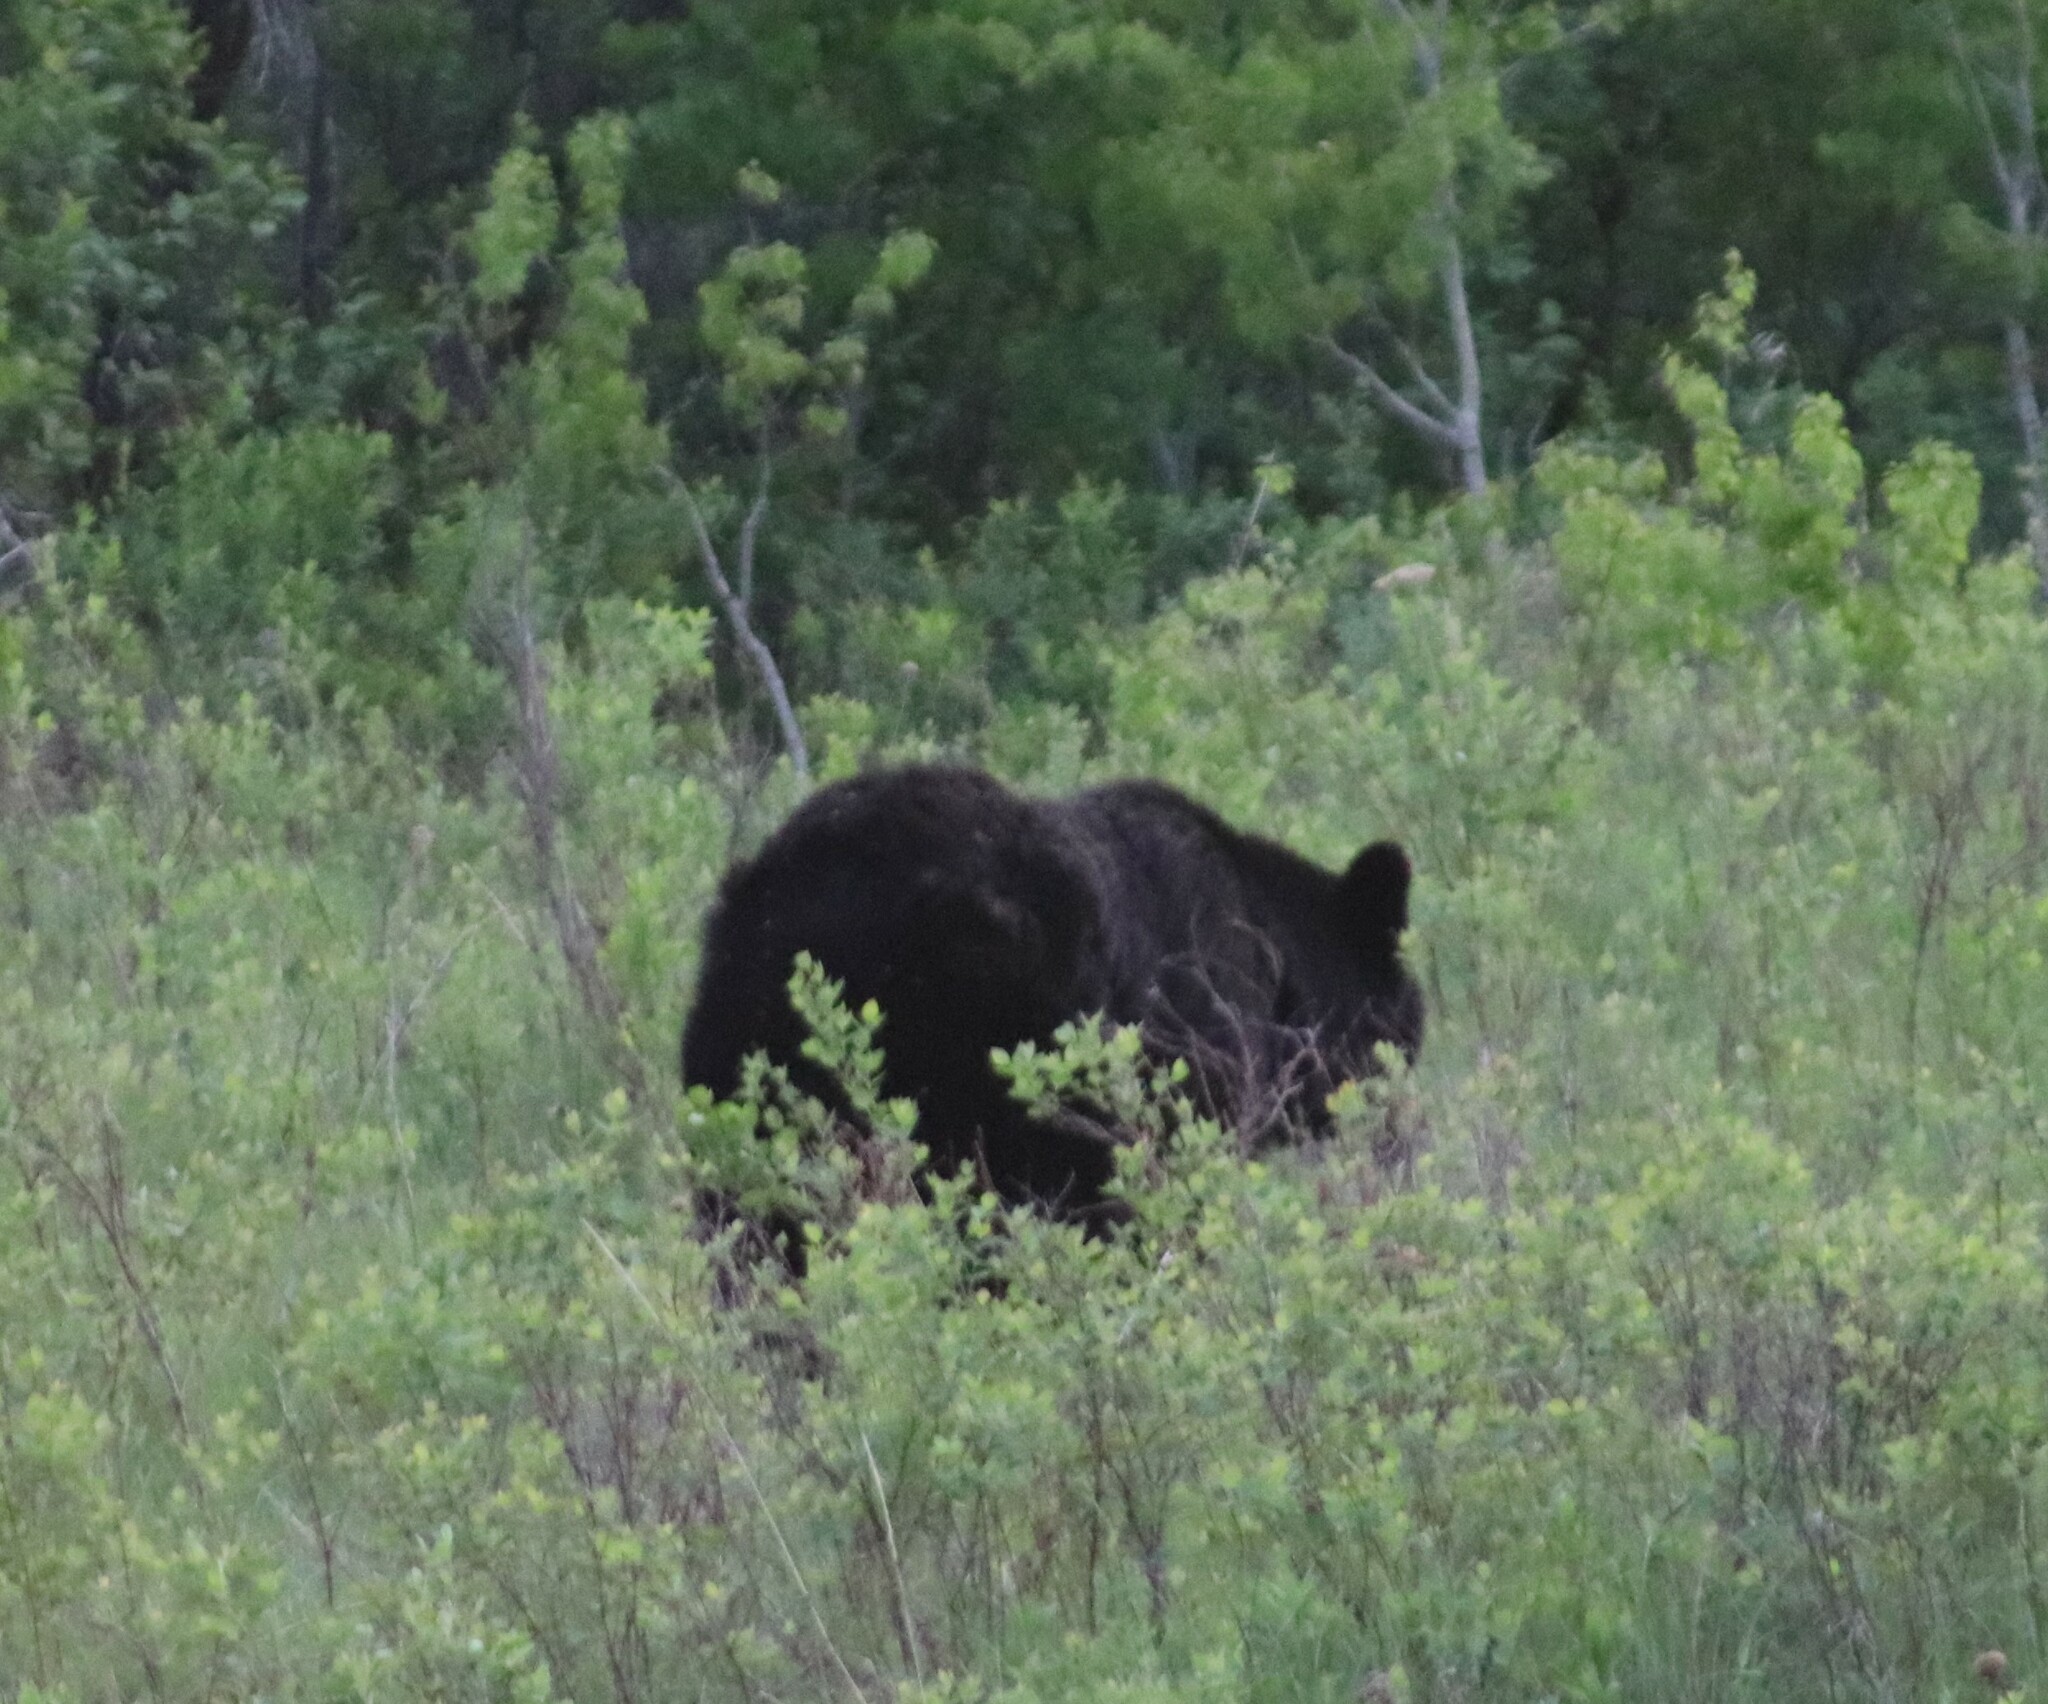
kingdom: Animalia
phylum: Chordata
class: Mammalia
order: Carnivora
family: Ursidae
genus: Ursus
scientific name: Ursus americanus
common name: American black bear
